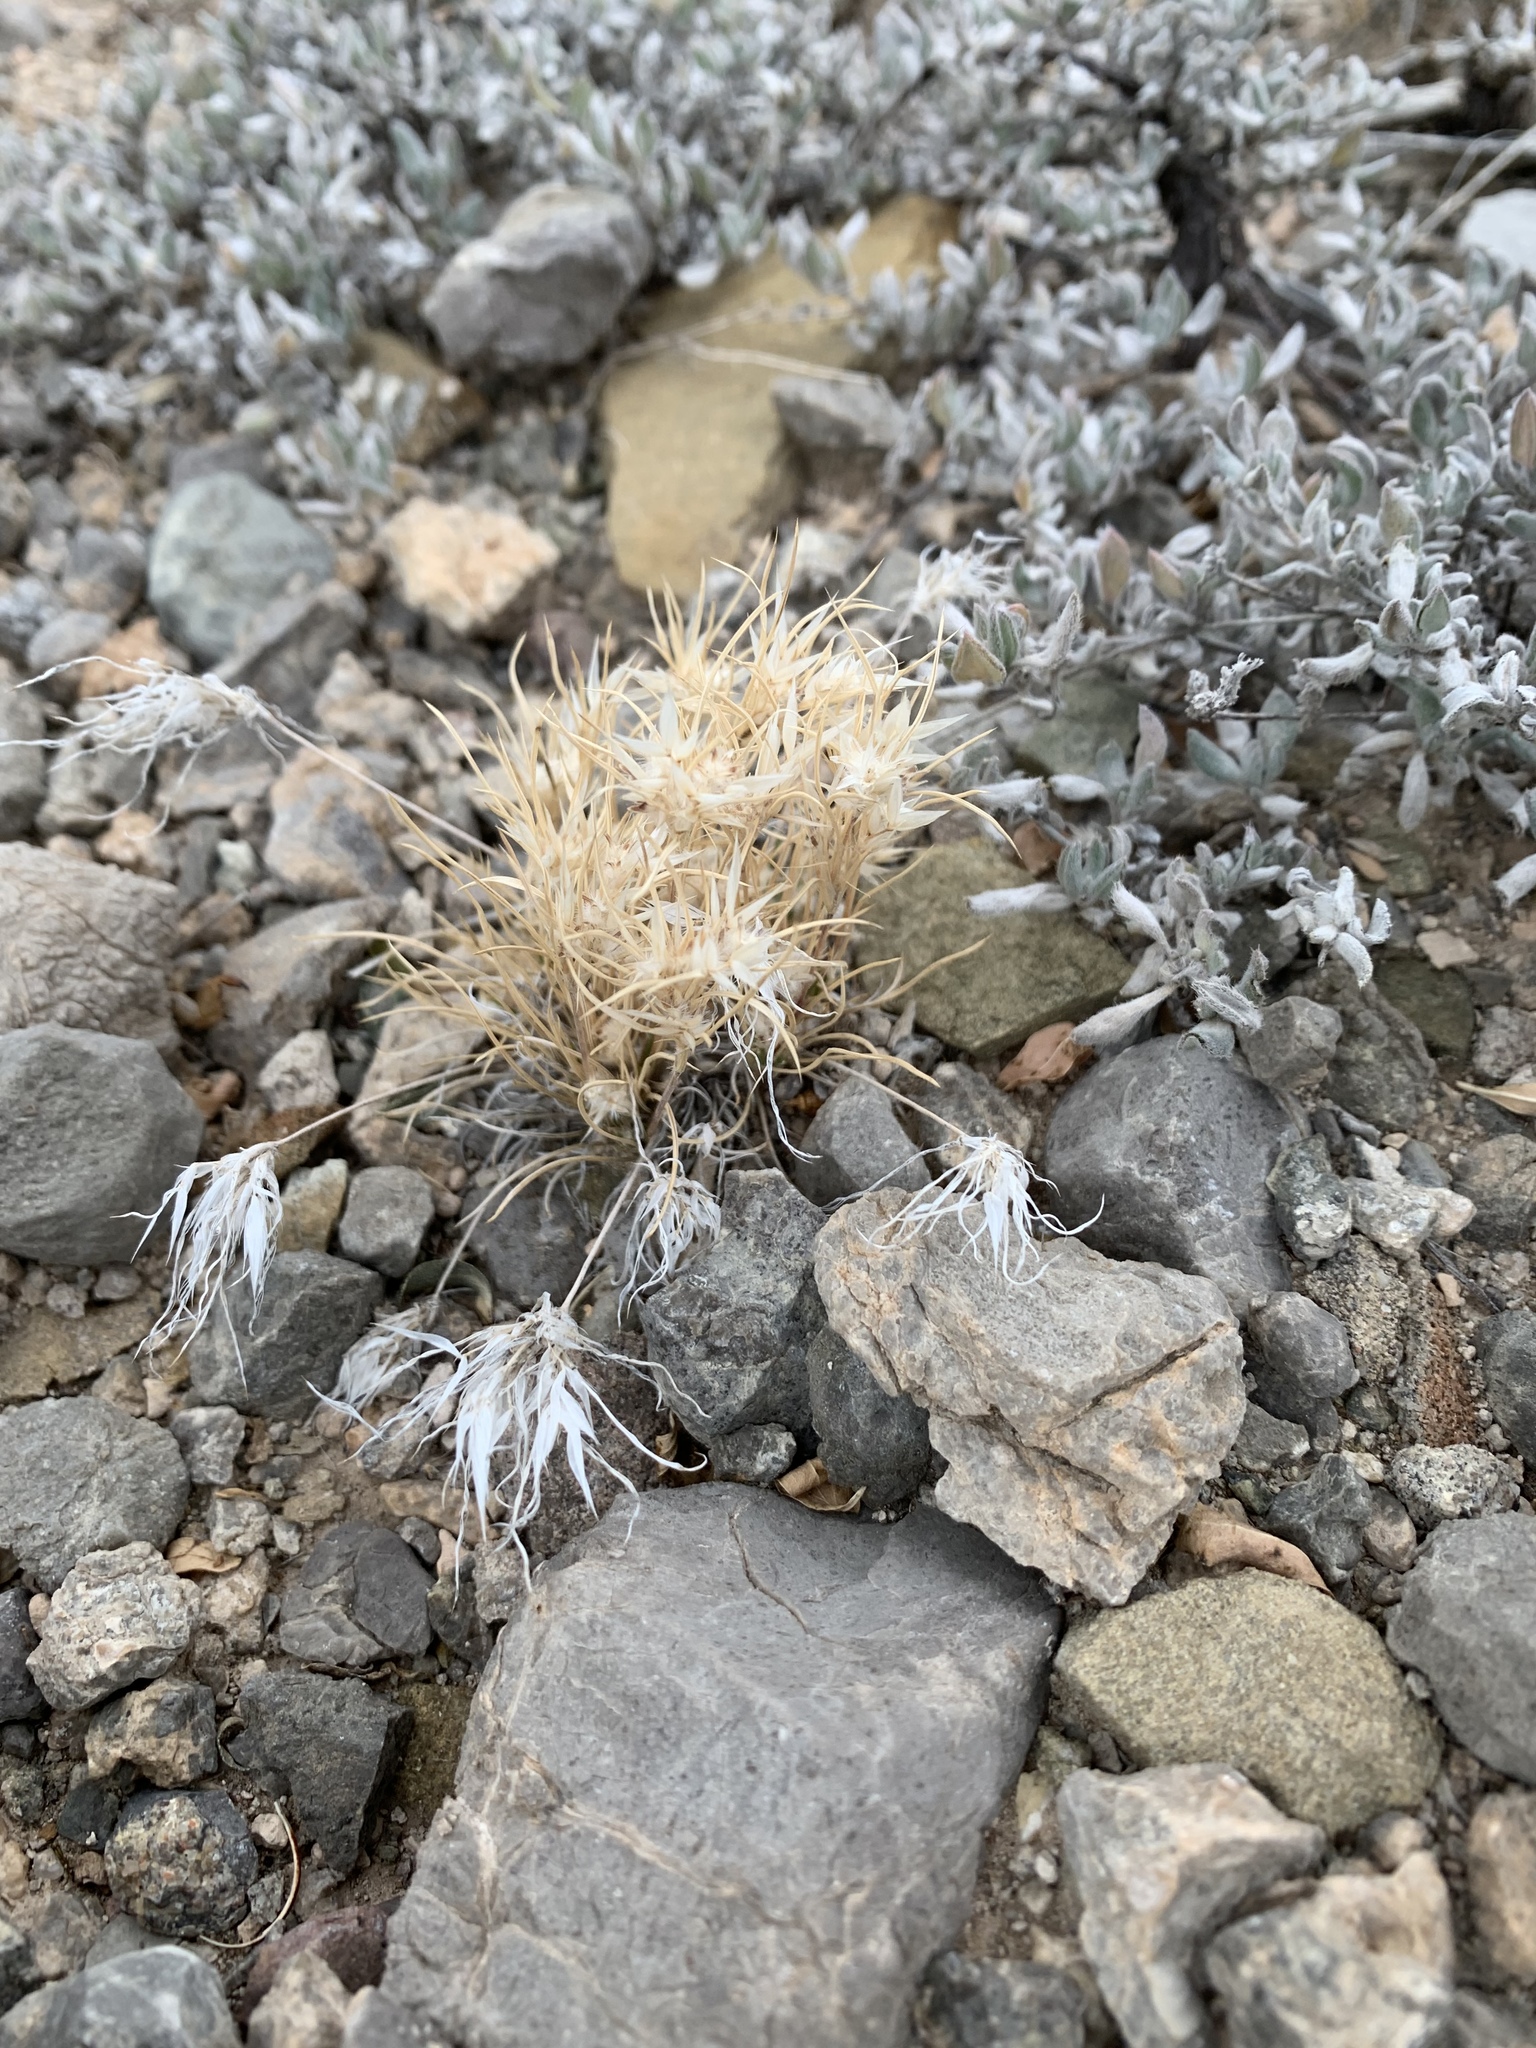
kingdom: Plantae
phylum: Tracheophyta
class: Liliopsida
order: Poales
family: Poaceae
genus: Dasyochloa
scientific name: Dasyochloa pulchella
